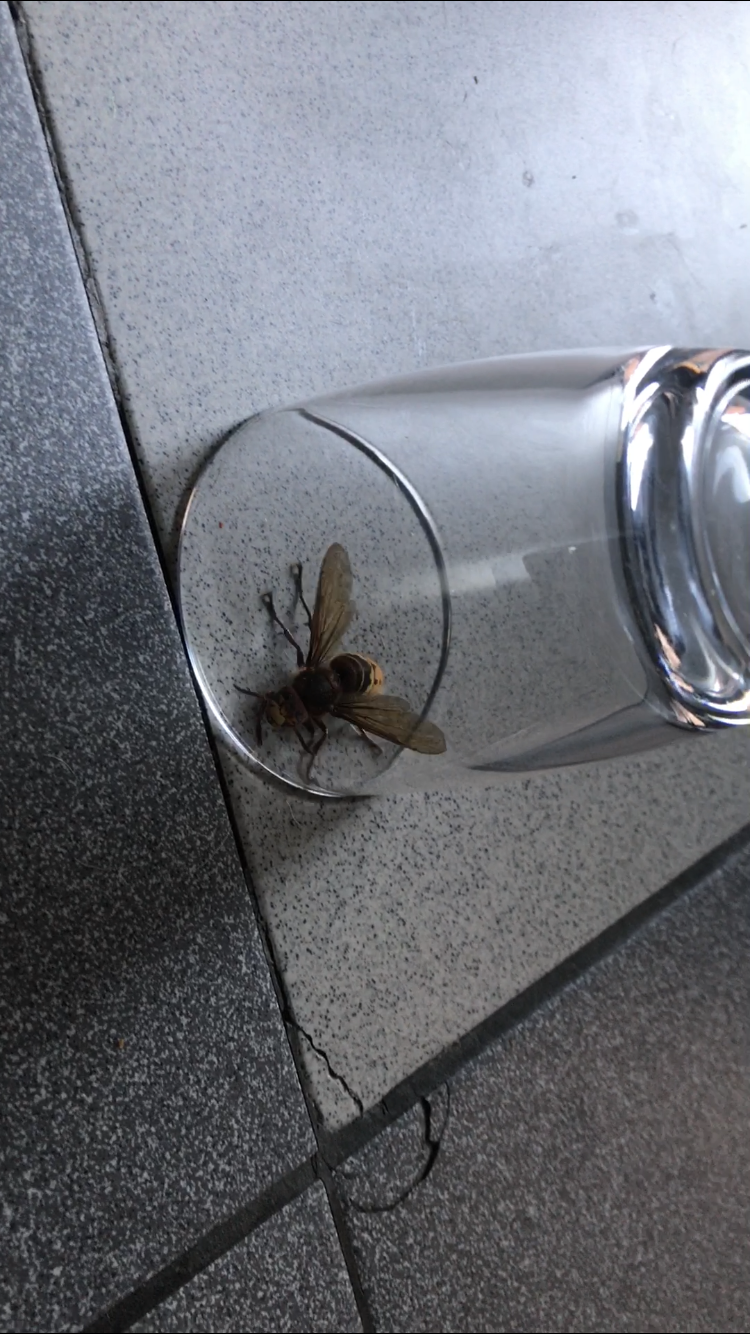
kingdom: Animalia
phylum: Arthropoda
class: Insecta
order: Hymenoptera
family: Vespidae
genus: Vespa
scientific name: Vespa crabro
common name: Hornet
